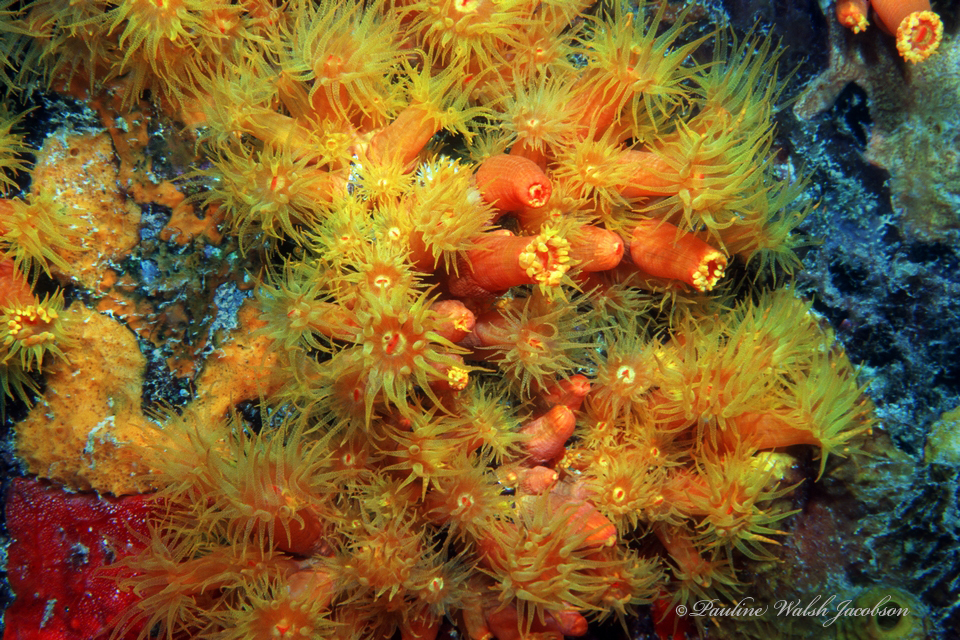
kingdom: Animalia
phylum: Cnidaria
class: Anthozoa
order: Scleractinia
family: Dendrophylliidae
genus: Tubastraea
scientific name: Tubastraea coccinea
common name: Orange cup coral
